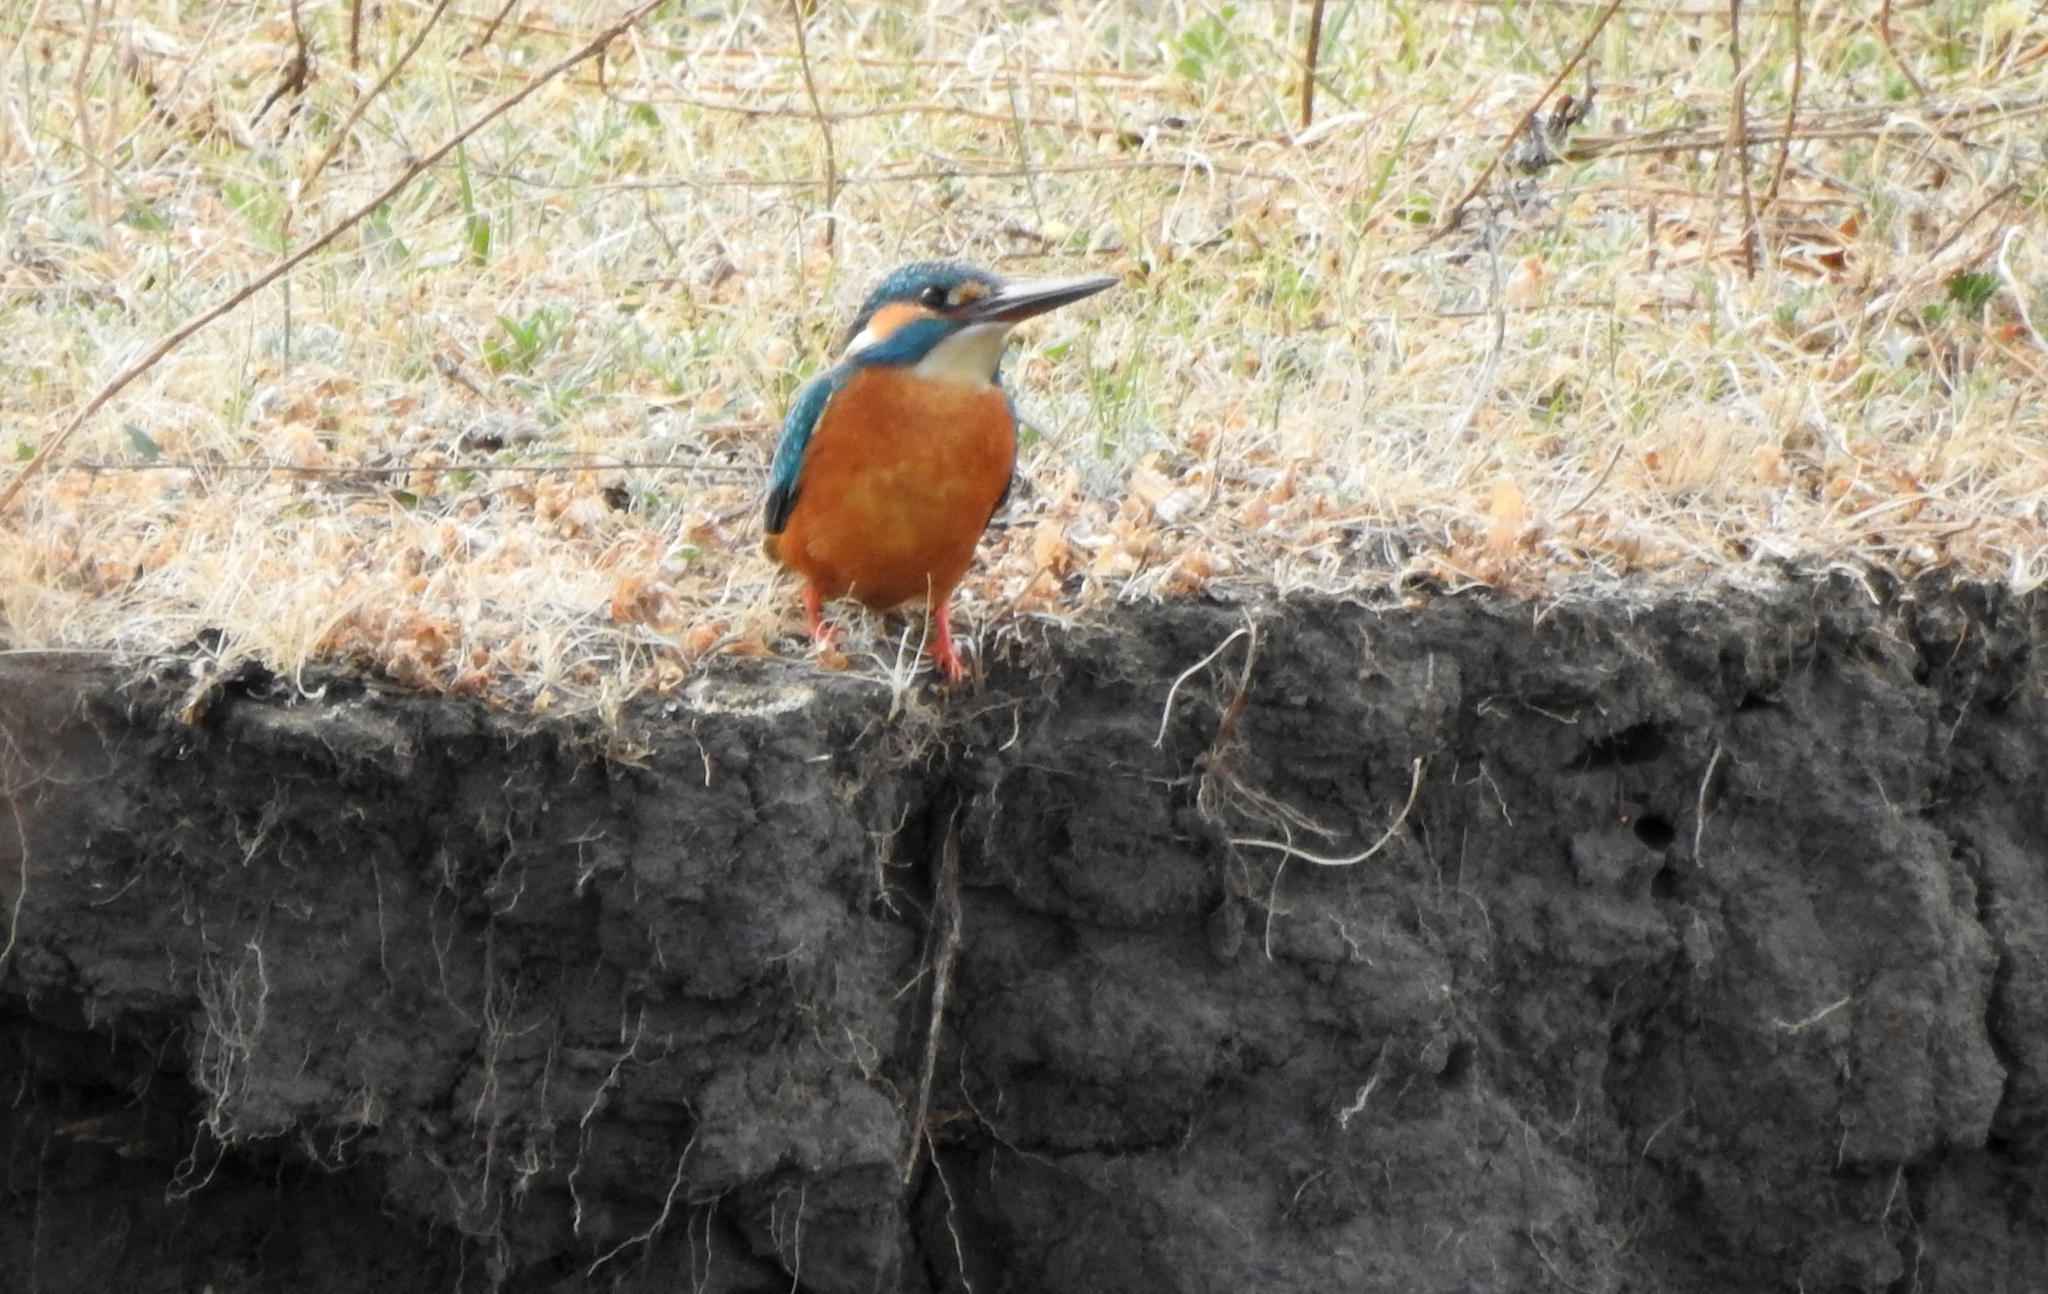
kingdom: Animalia
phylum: Chordata
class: Aves
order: Coraciiformes
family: Alcedinidae
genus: Alcedo
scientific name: Alcedo atthis
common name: Common kingfisher
